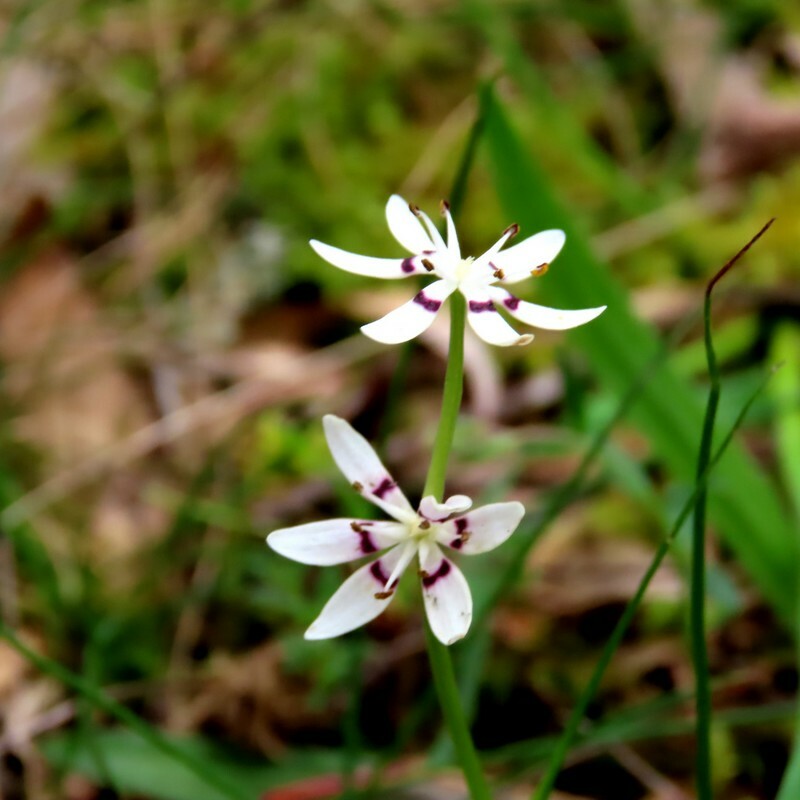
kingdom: Plantae
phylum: Tracheophyta
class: Liliopsida
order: Liliales
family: Colchicaceae
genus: Wurmbea
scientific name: Wurmbea dioica
